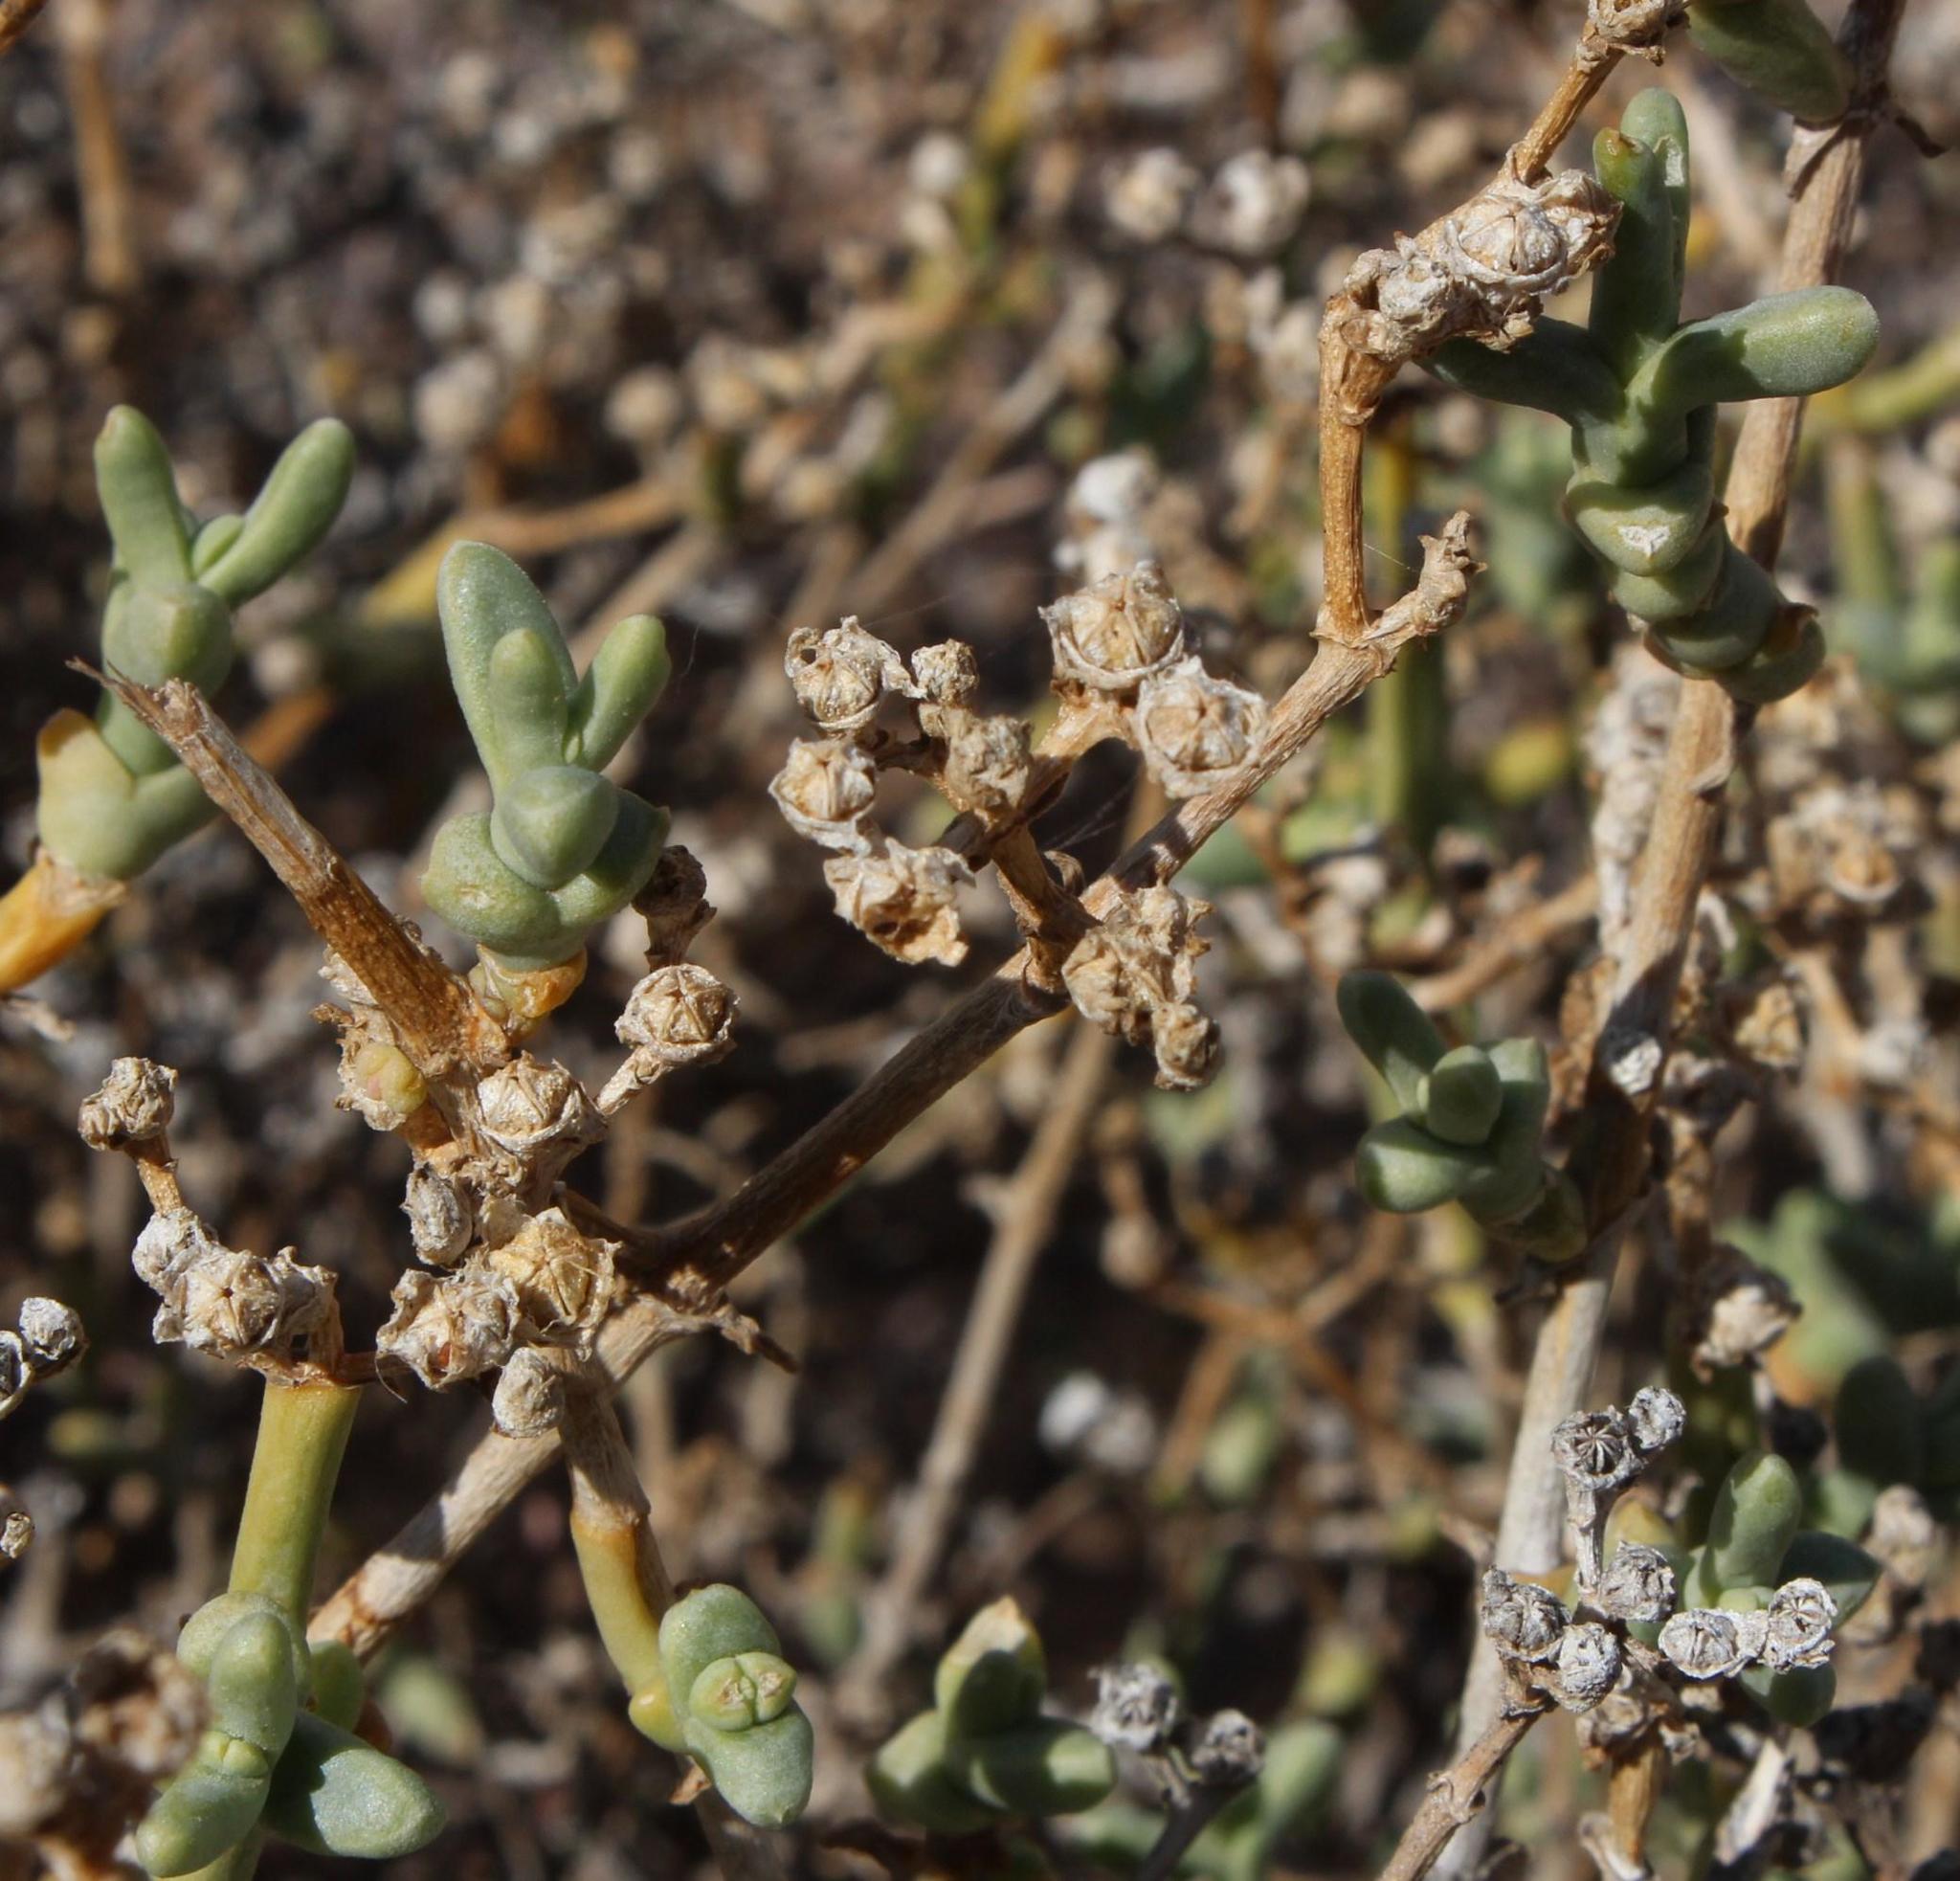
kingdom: Plantae
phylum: Tracheophyta
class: Magnoliopsida
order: Caryophyllales
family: Aizoaceae
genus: Mesembryanthemum
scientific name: Mesembryanthemum subnodosum
